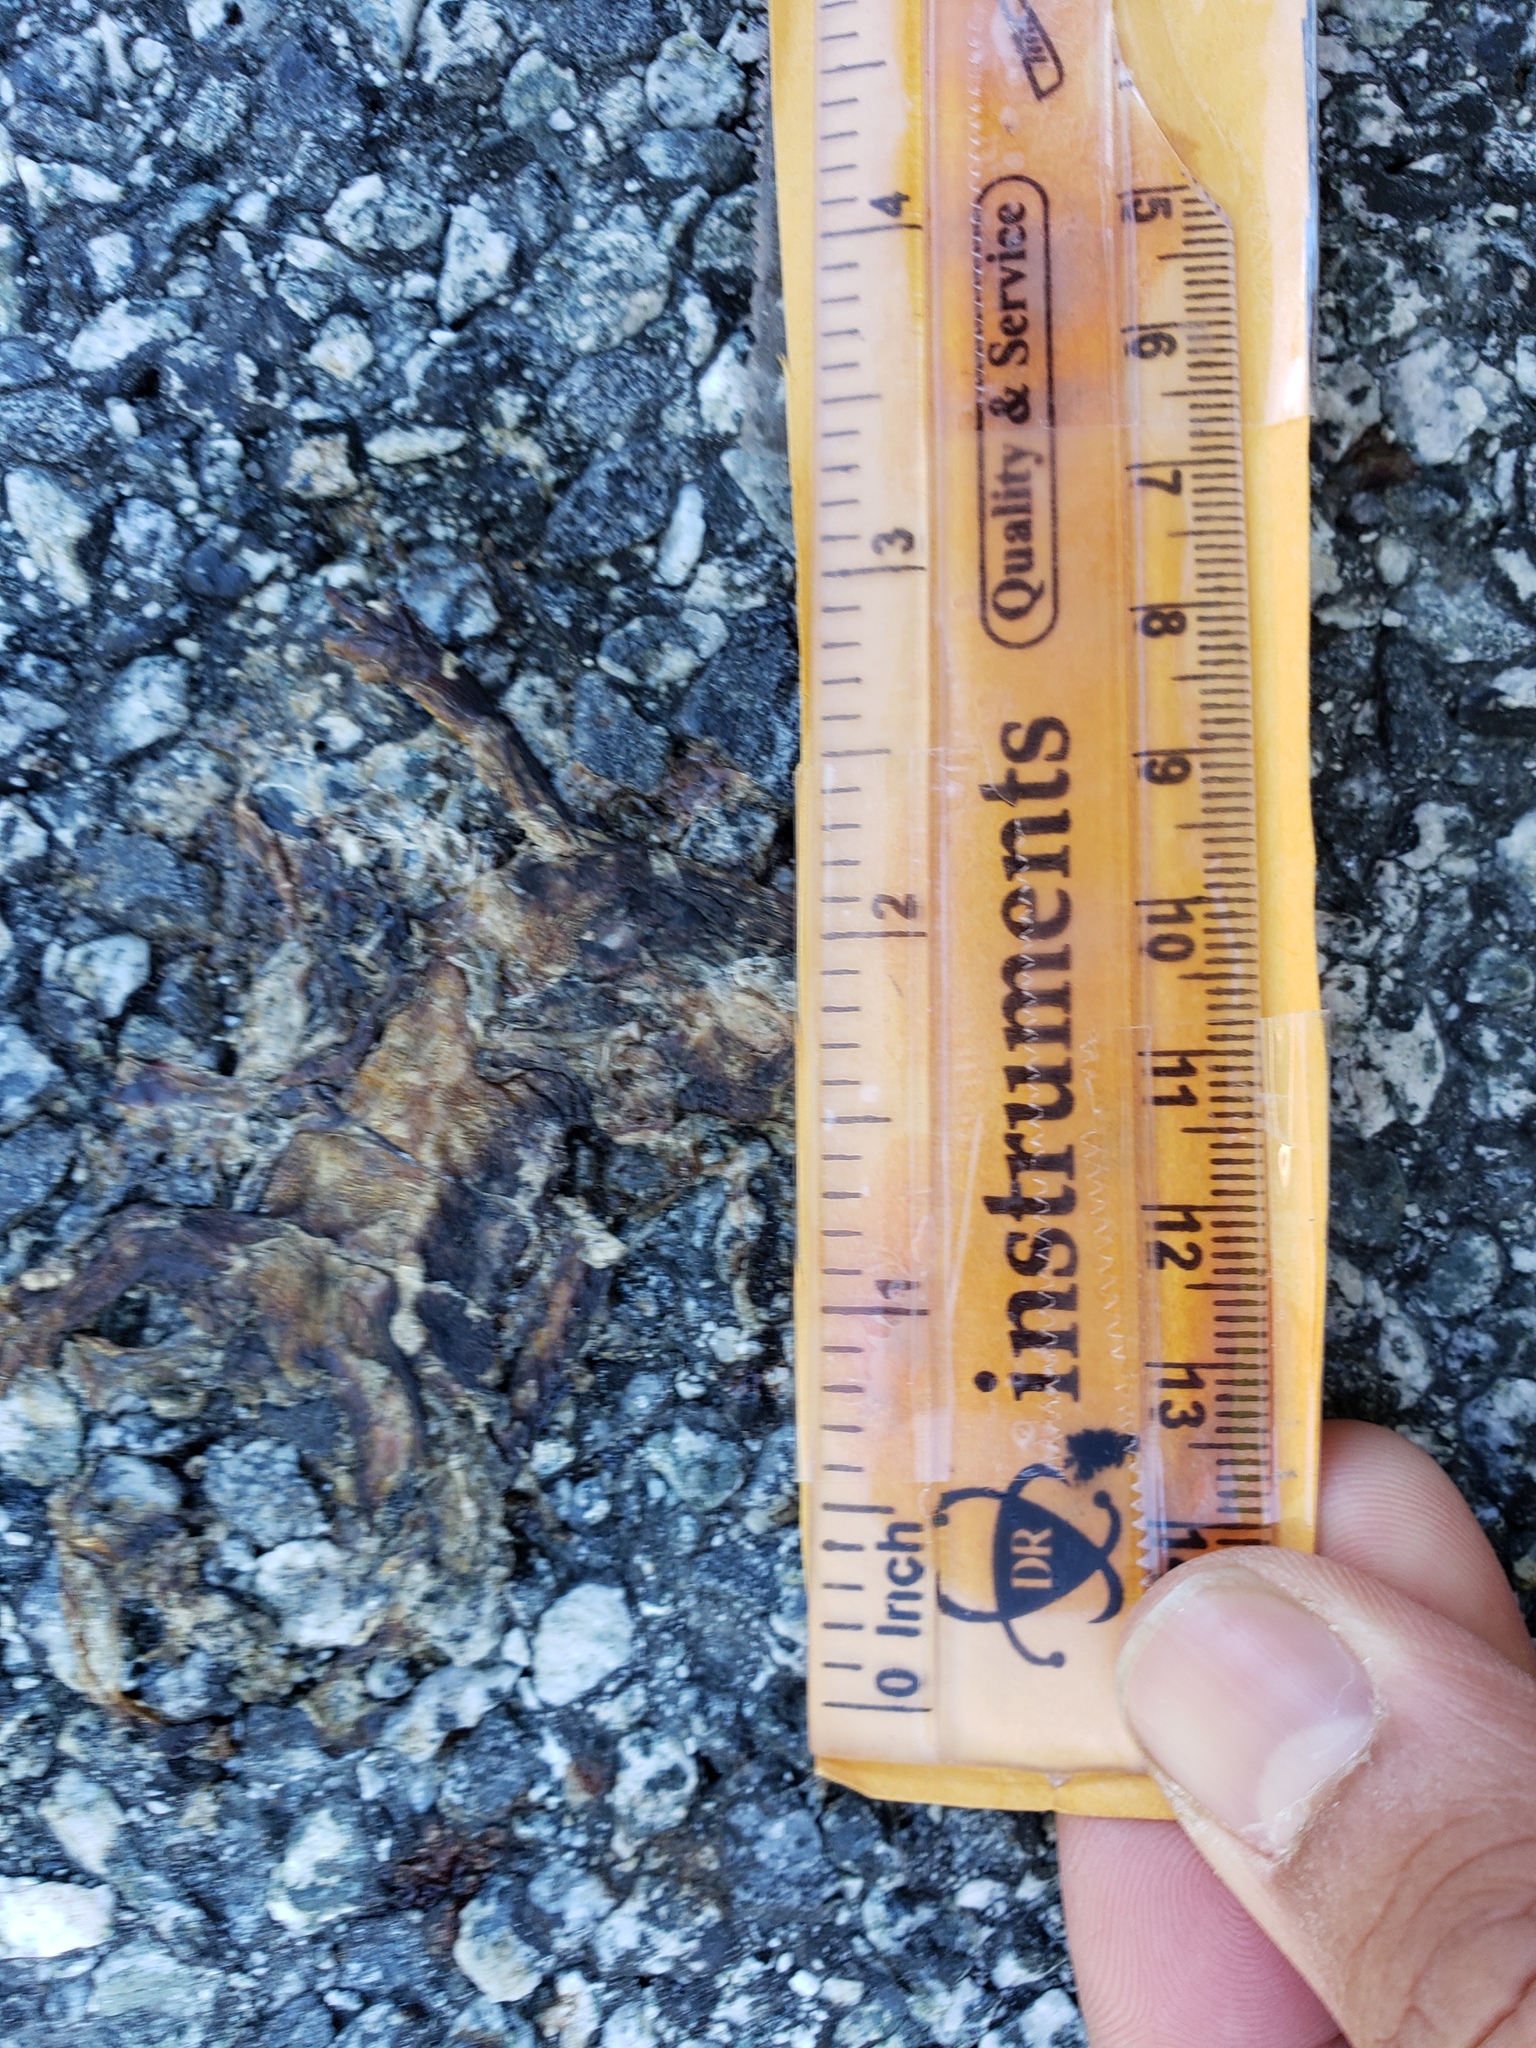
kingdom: Animalia
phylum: Chordata
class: Amphibia
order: Caudata
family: Salamandridae
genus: Taricha
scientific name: Taricha
